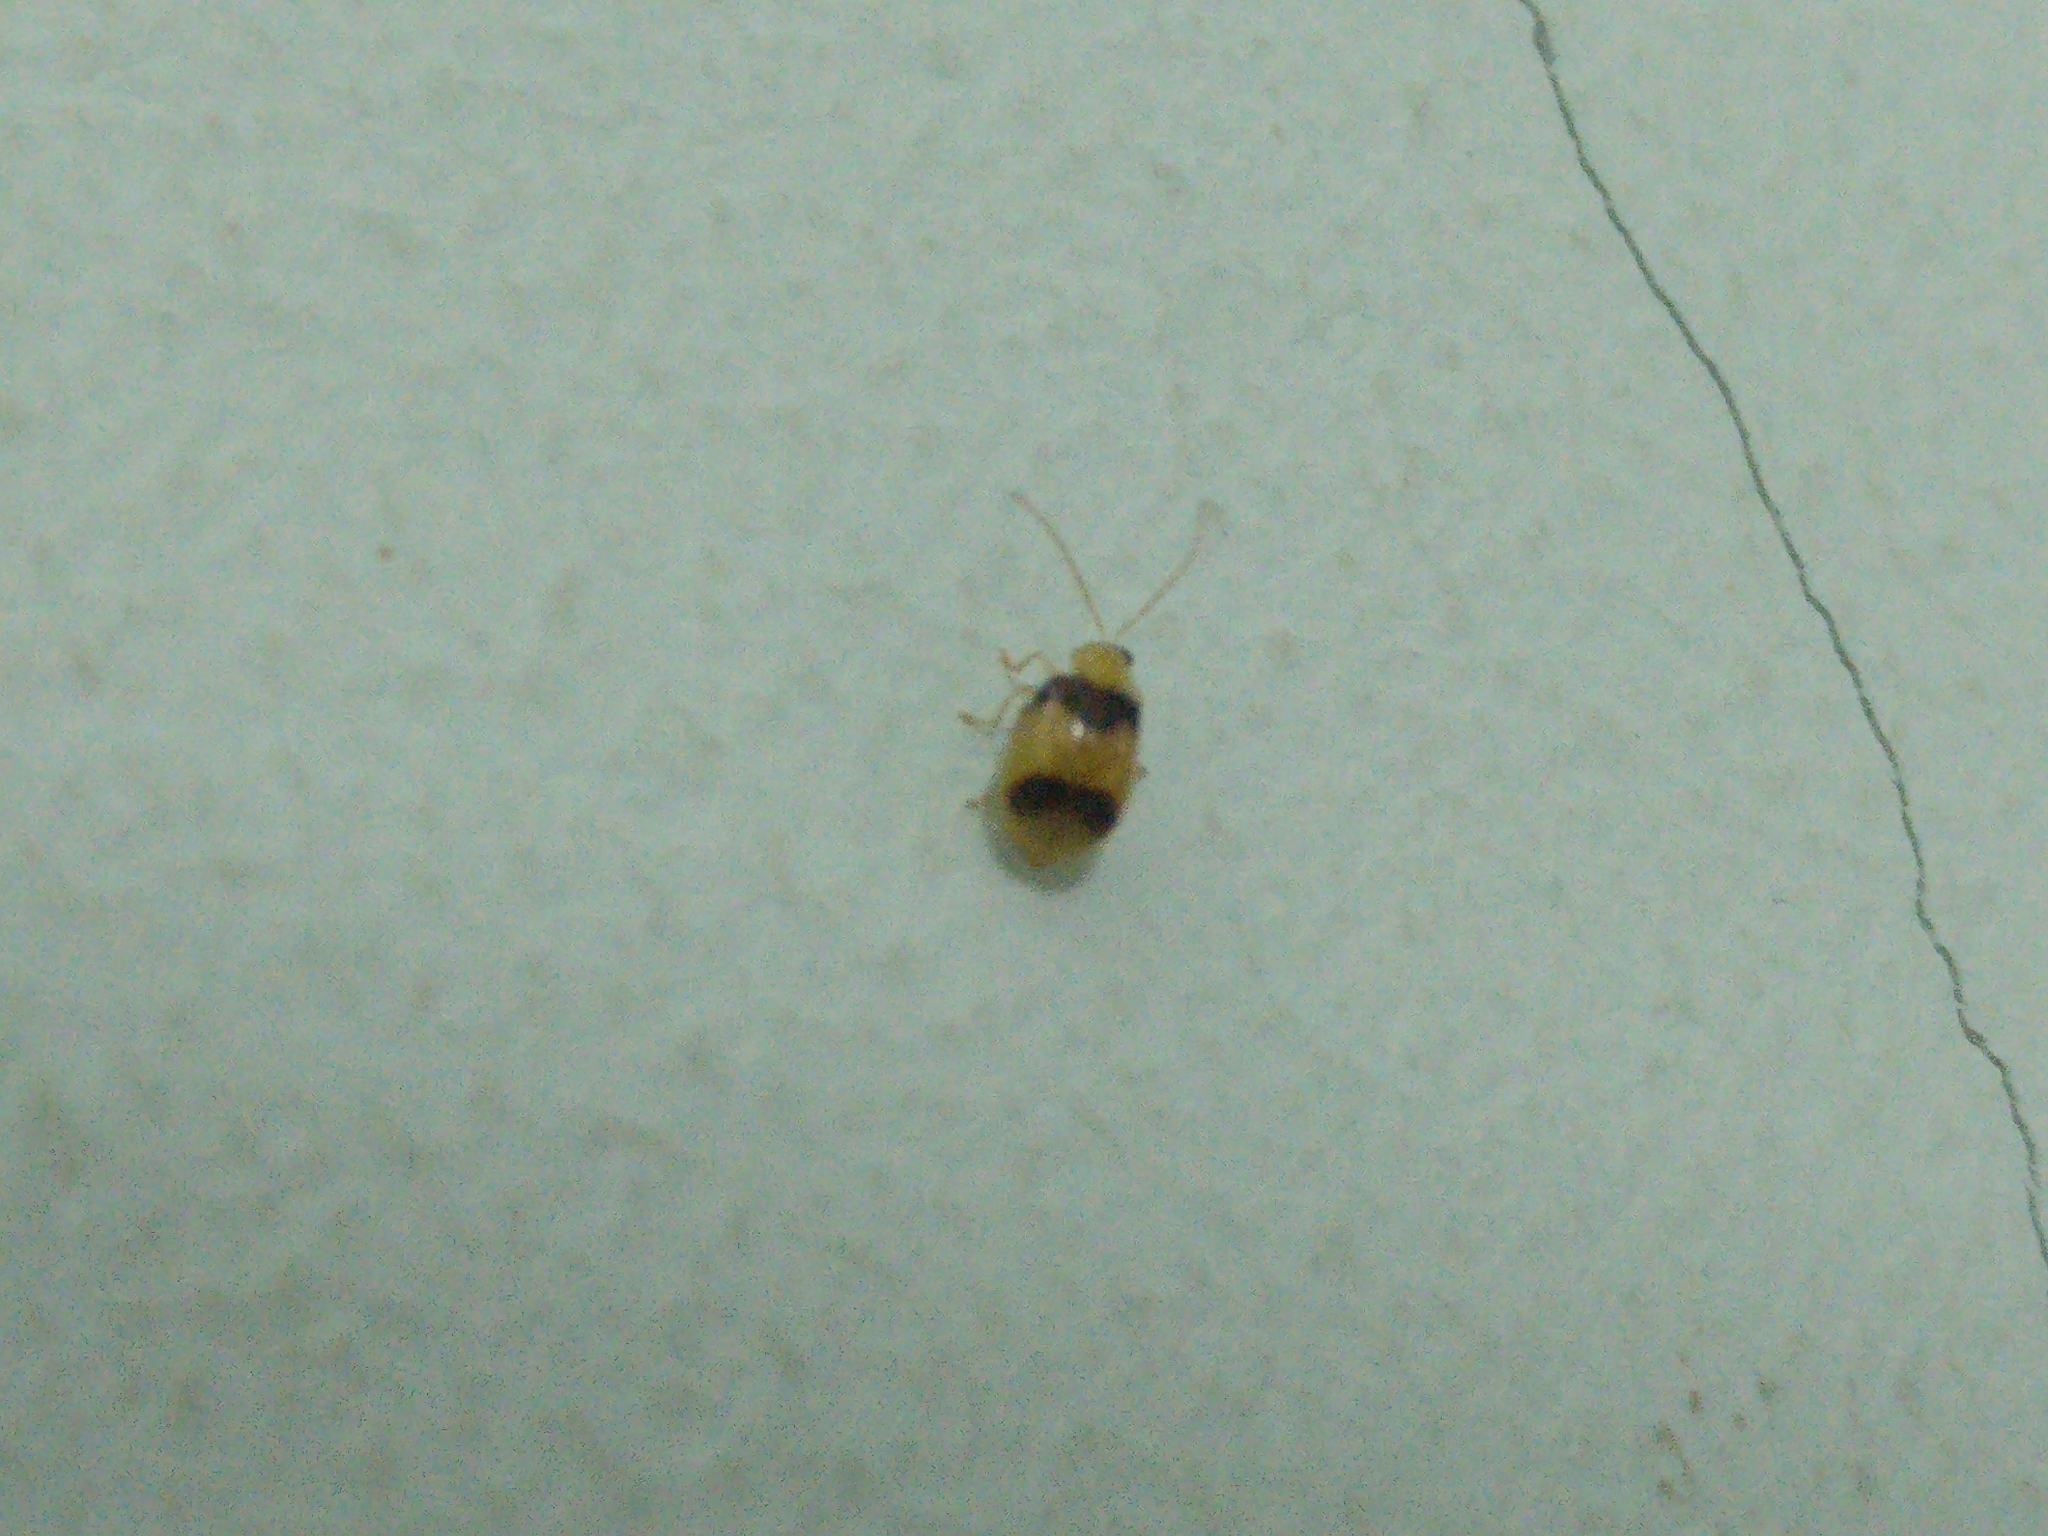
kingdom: Animalia
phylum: Arthropoda
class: Insecta
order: Coleoptera
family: Chrysomelidae
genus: Monolepta
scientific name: Monolepta
